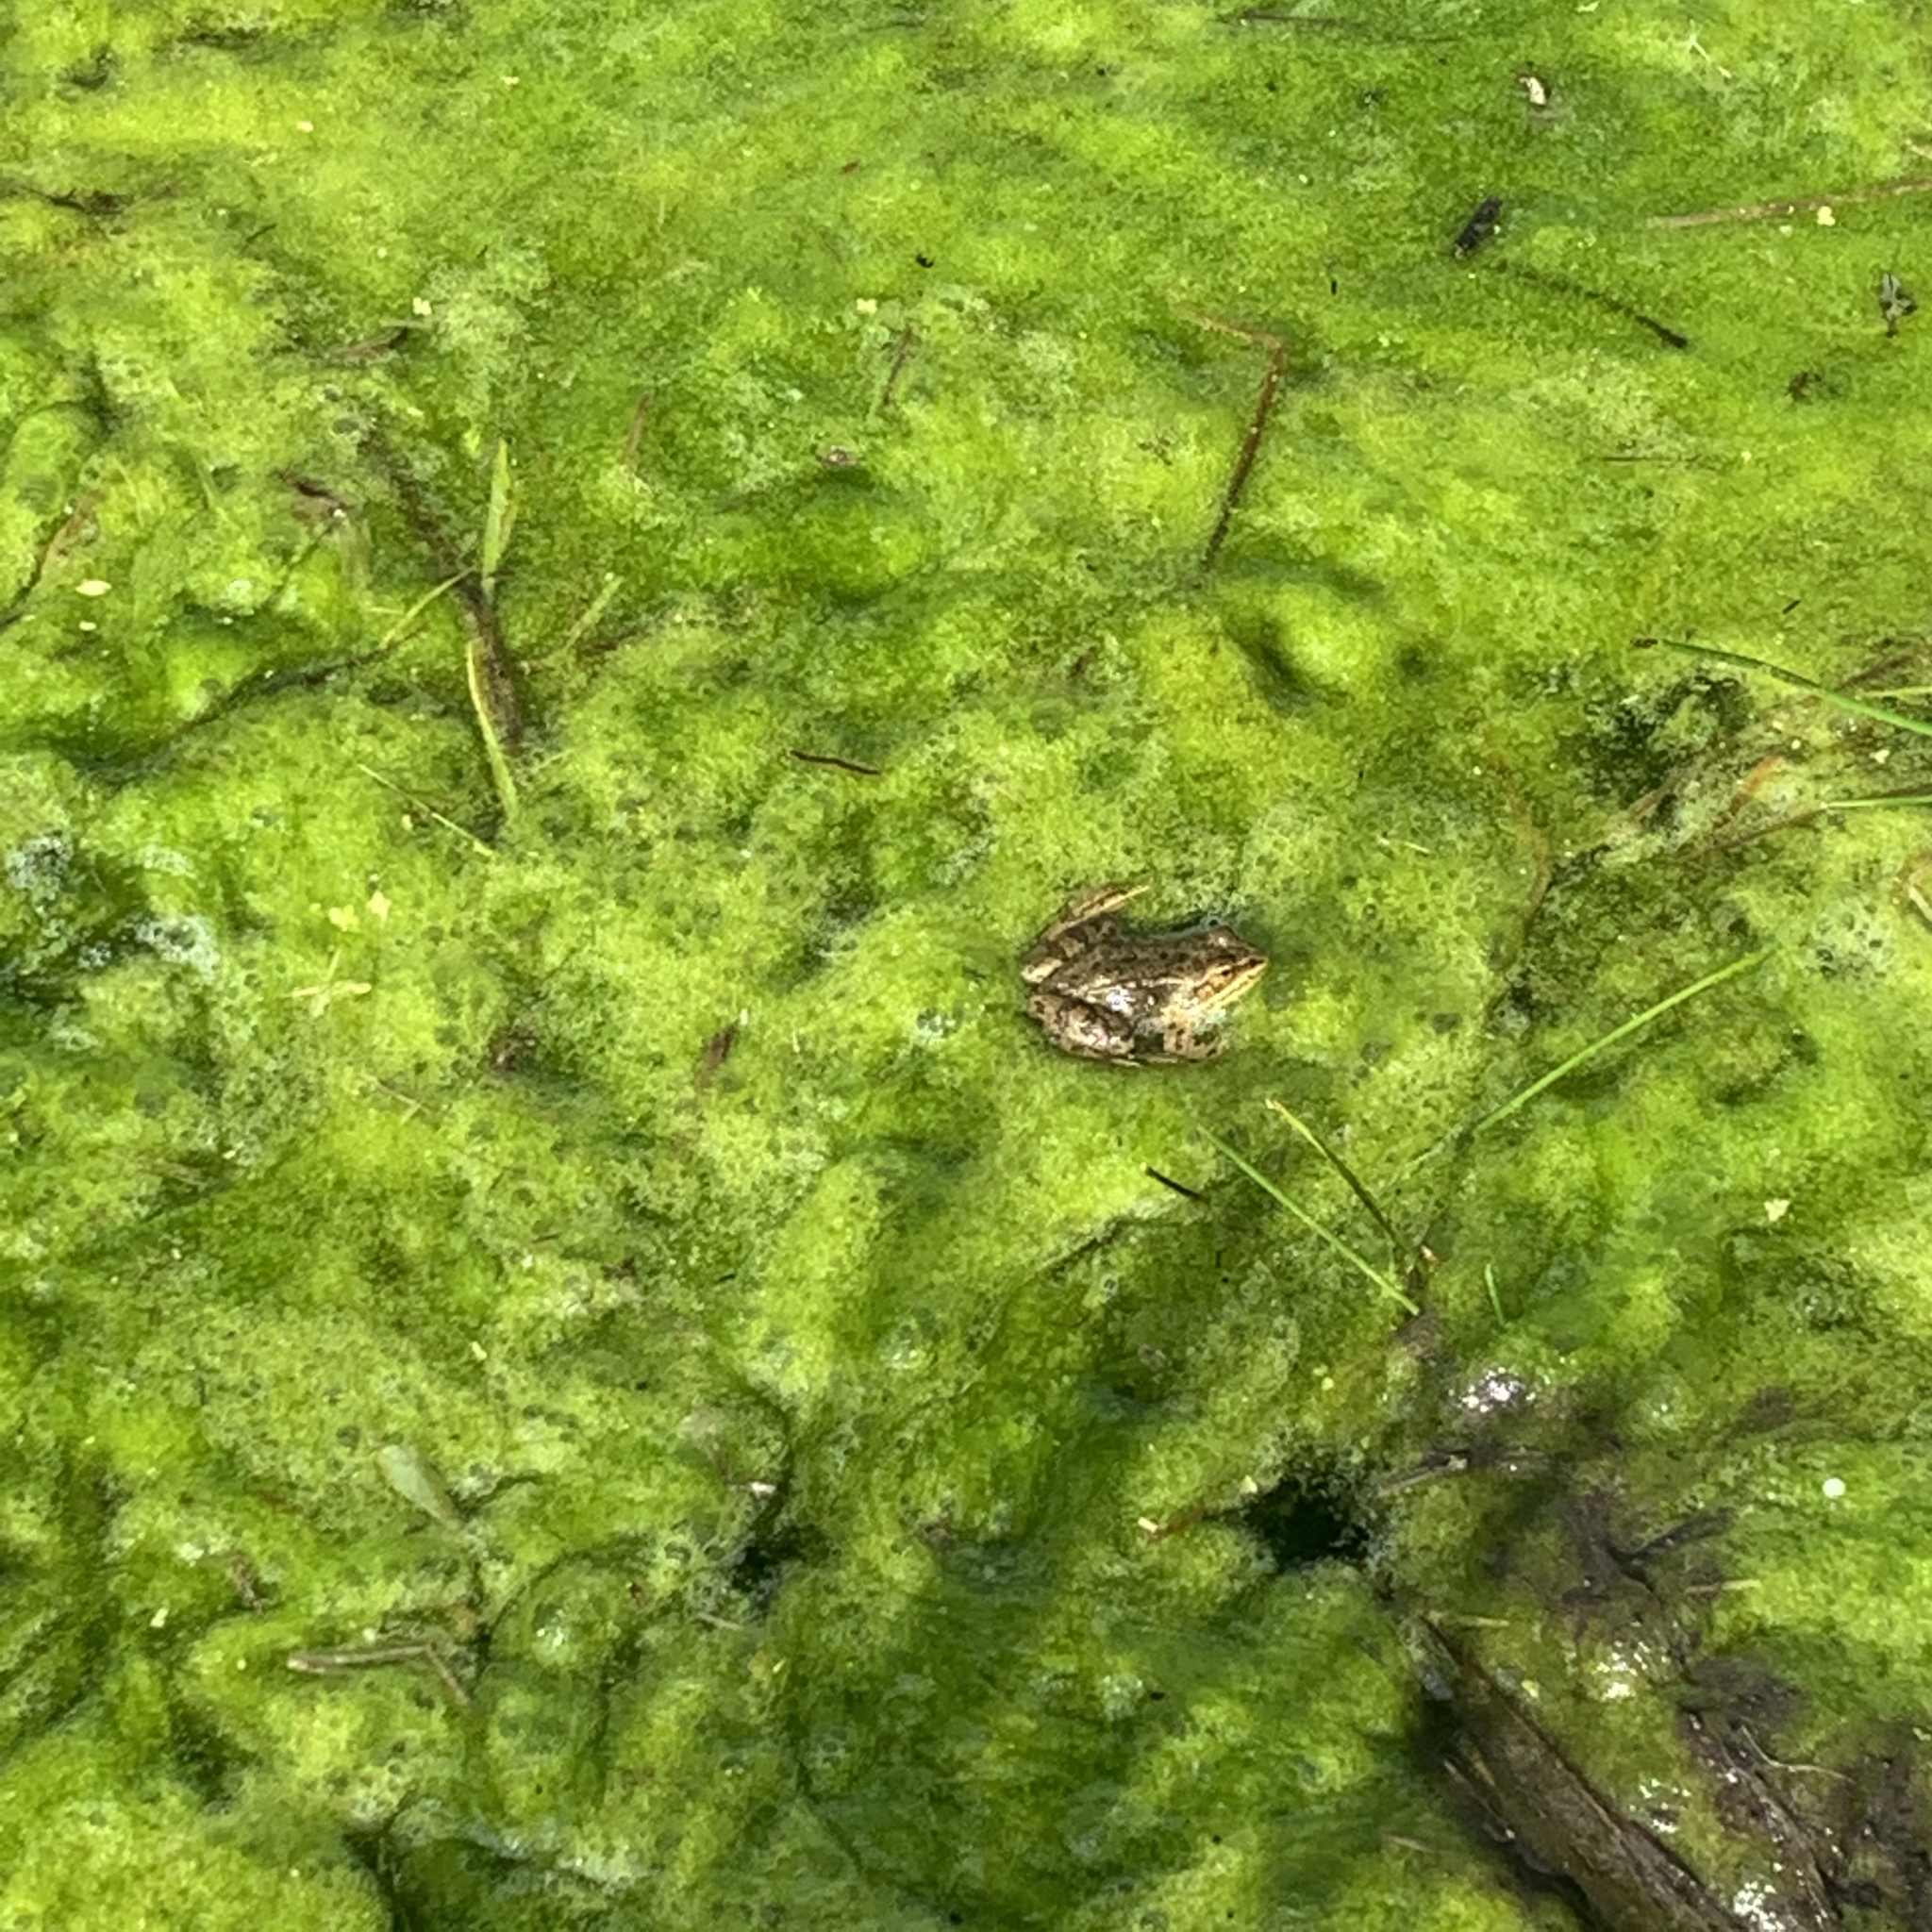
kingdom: Animalia
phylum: Chordata
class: Amphibia
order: Anura
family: Ranidae
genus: Rana
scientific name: Rana luteiventris
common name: Columbia spotted frog
